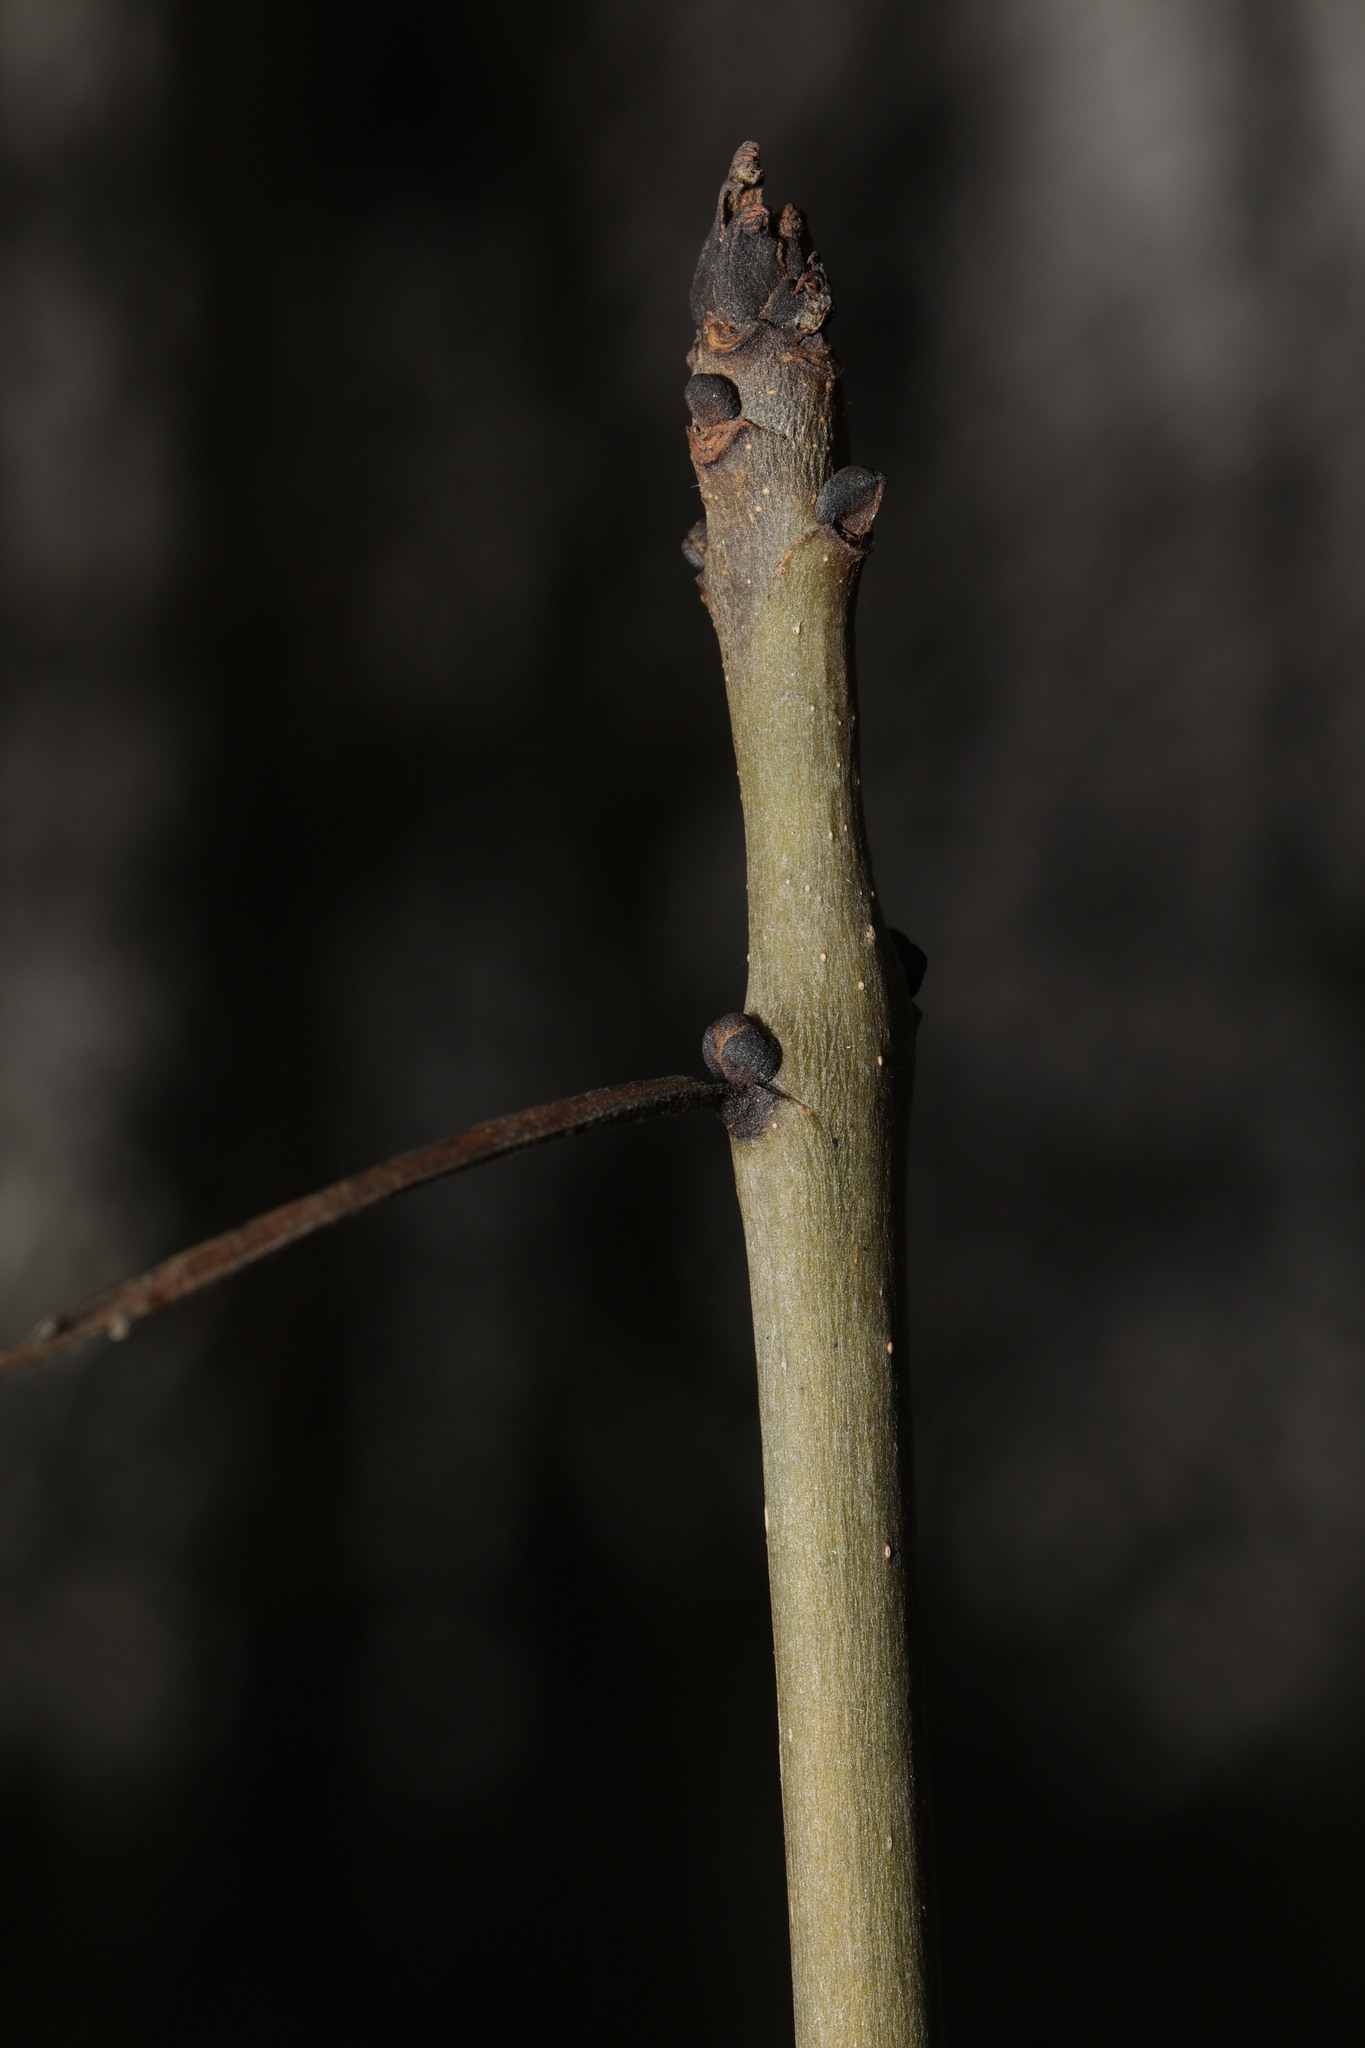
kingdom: Plantae
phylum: Tracheophyta
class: Magnoliopsida
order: Lamiales
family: Oleaceae
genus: Fraxinus
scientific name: Fraxinus excelsior
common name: European ash
